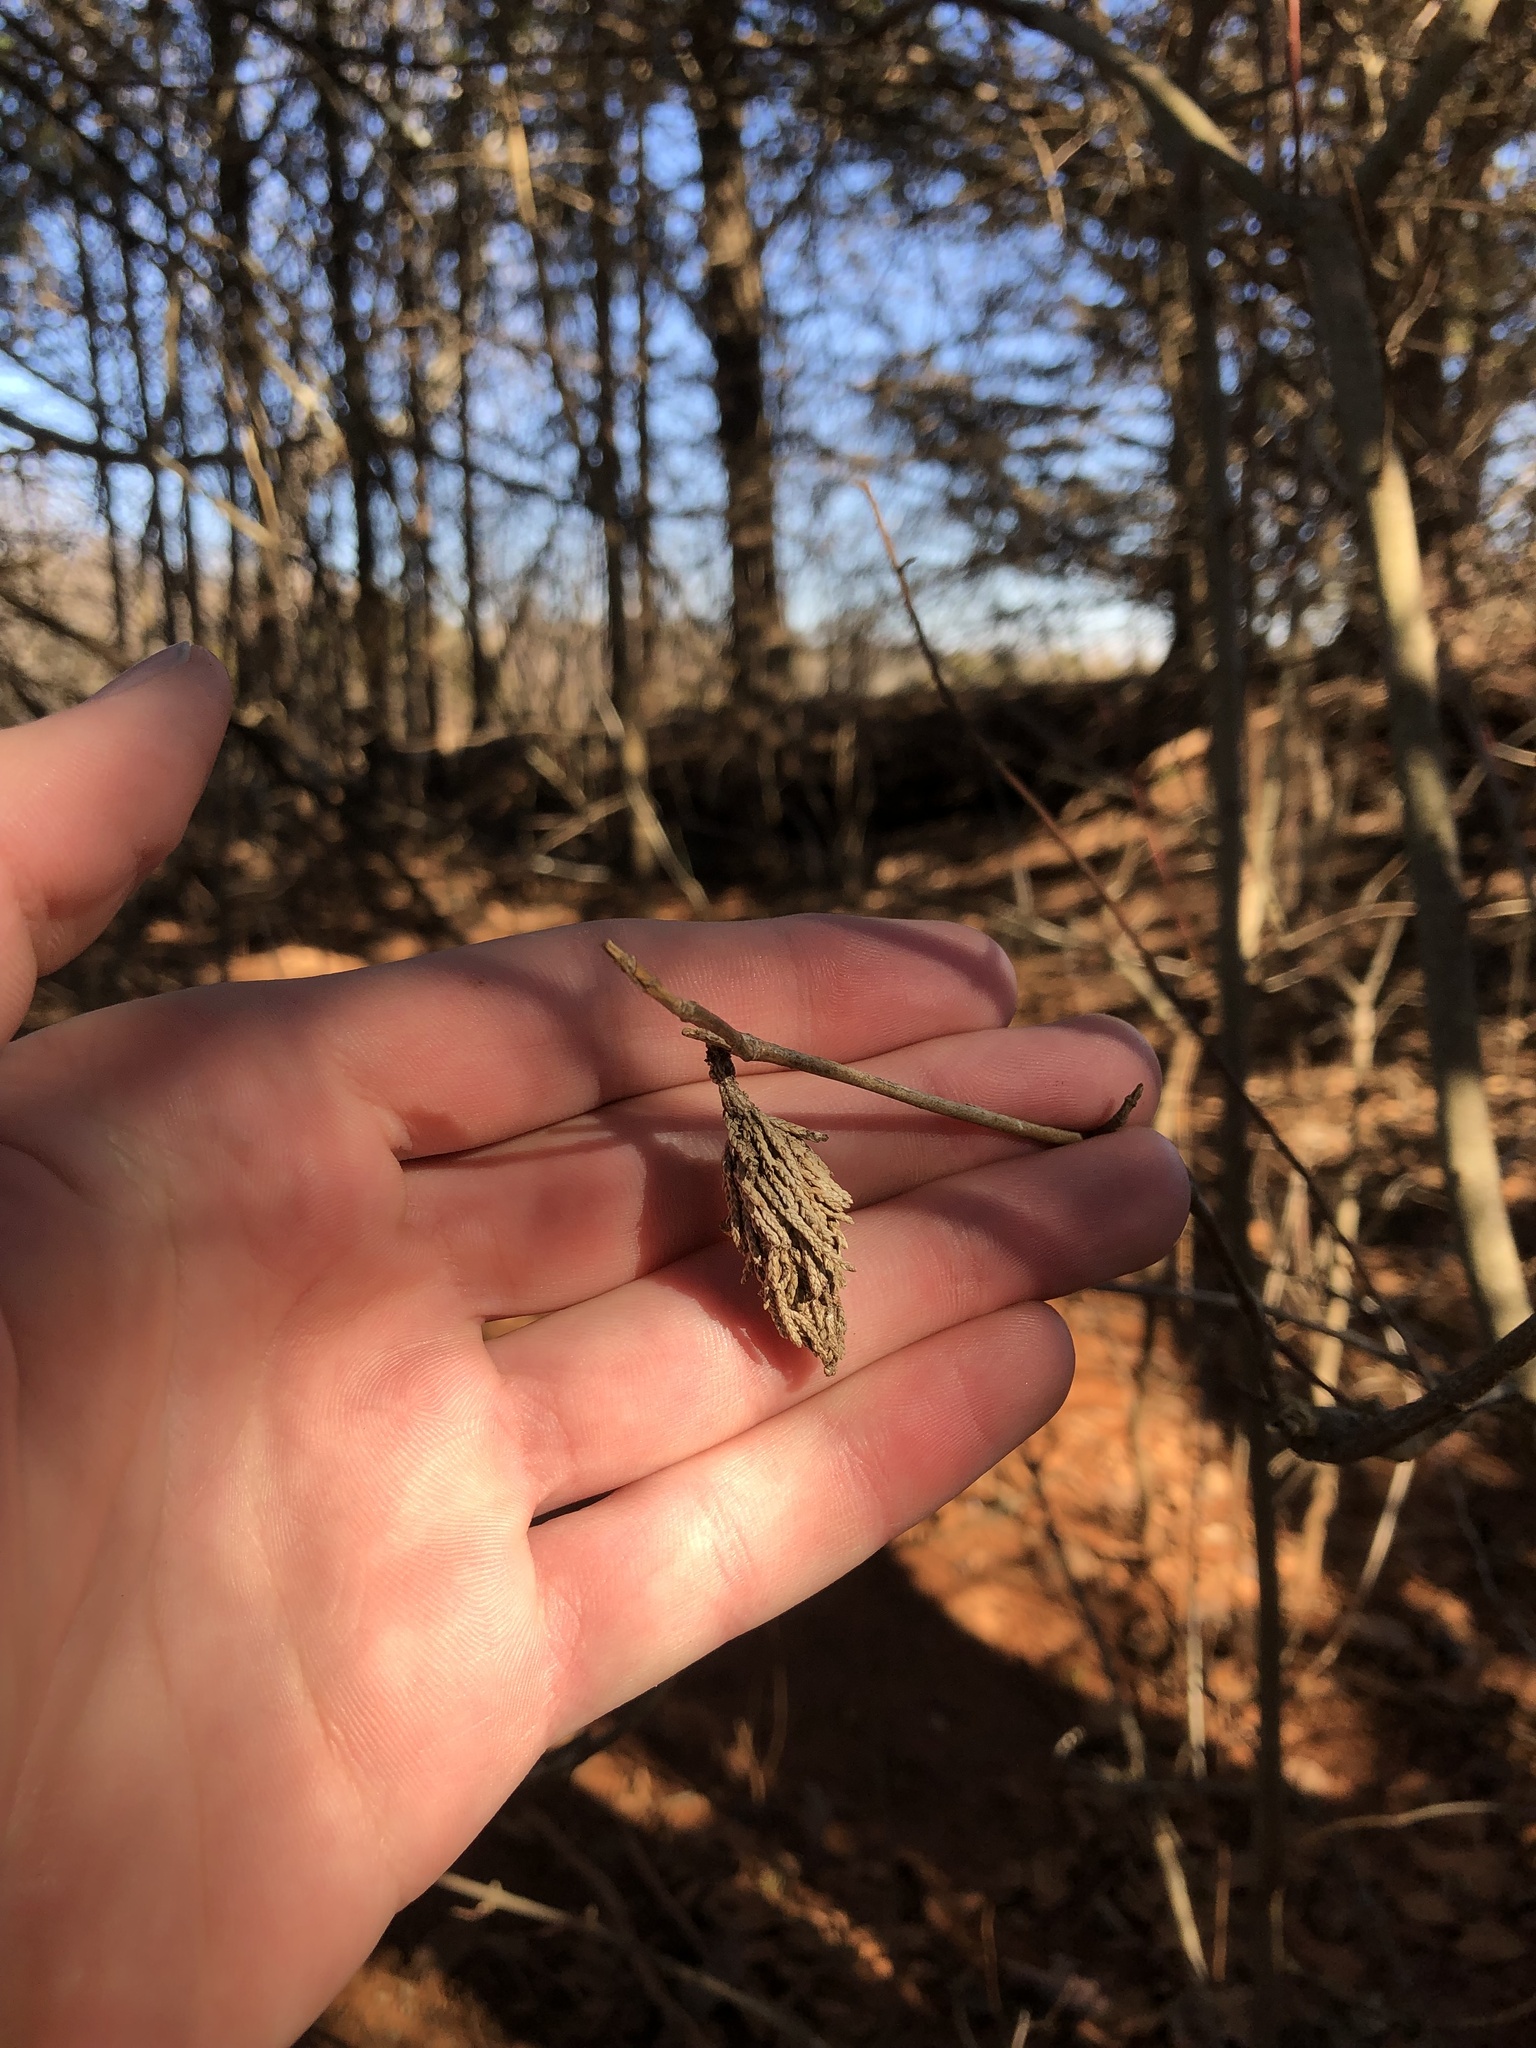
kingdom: Animalia
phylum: Arthropoda
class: Insecta
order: Lepidoptera
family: Psychidae
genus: Thyridopteryx
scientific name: Thyridopteryx ephemeraeformis
